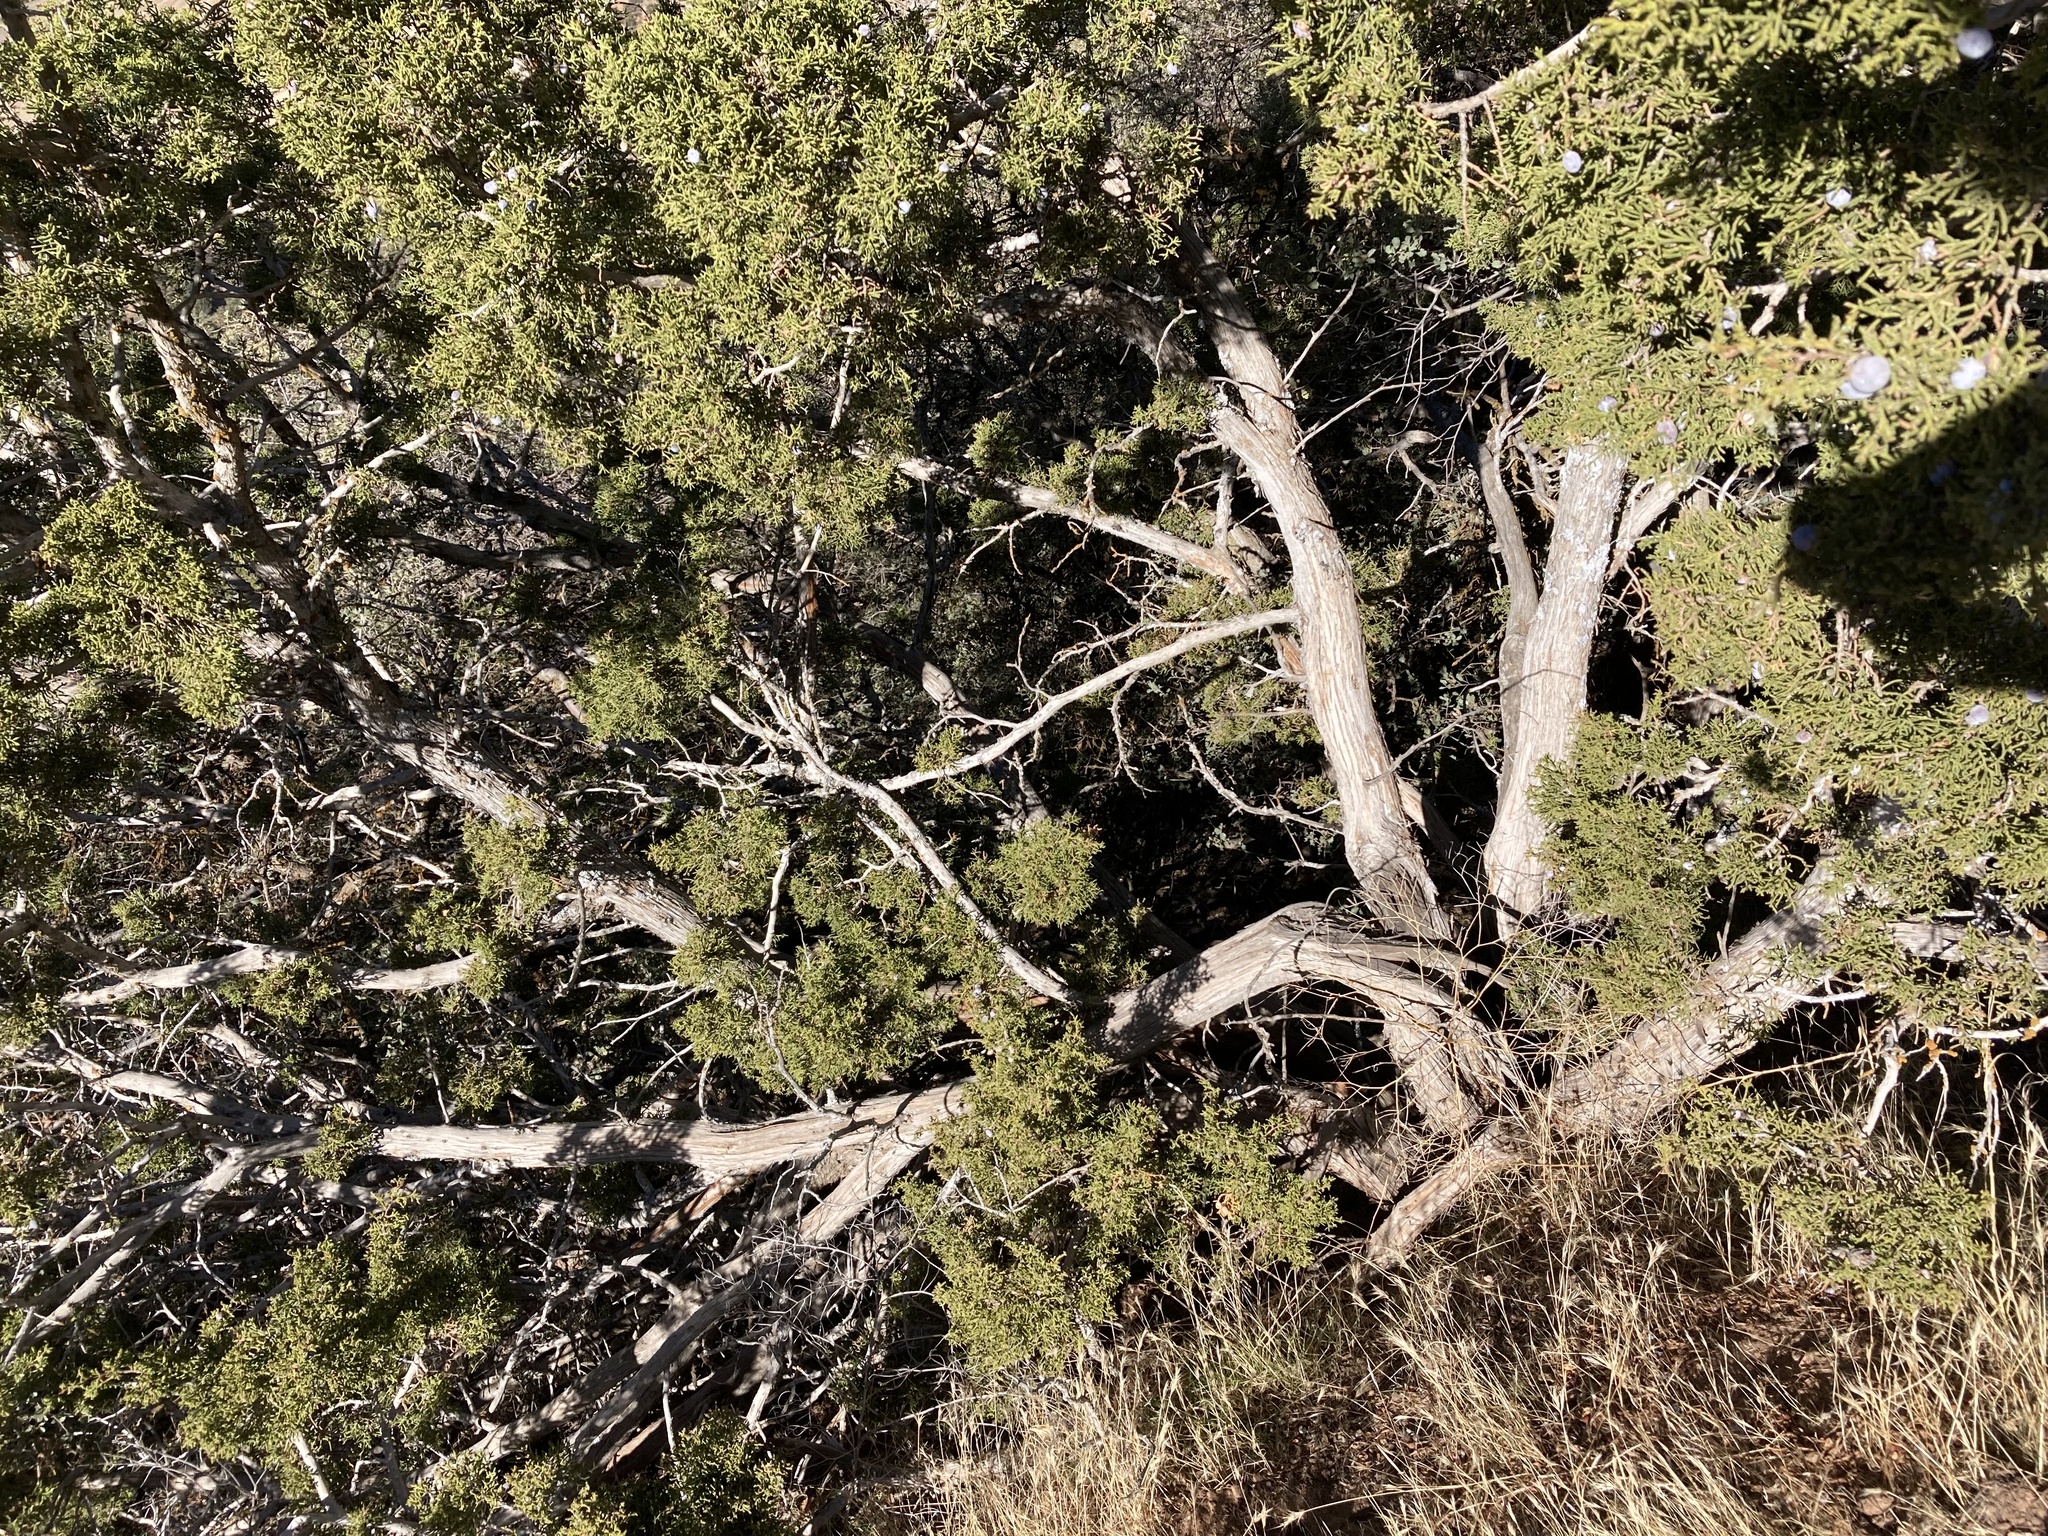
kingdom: Plantae
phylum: Tracheophyta
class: Pinopsida
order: Pinales
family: Cupressaceae
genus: Juniperus
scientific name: Juniperus californica
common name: California juniper
